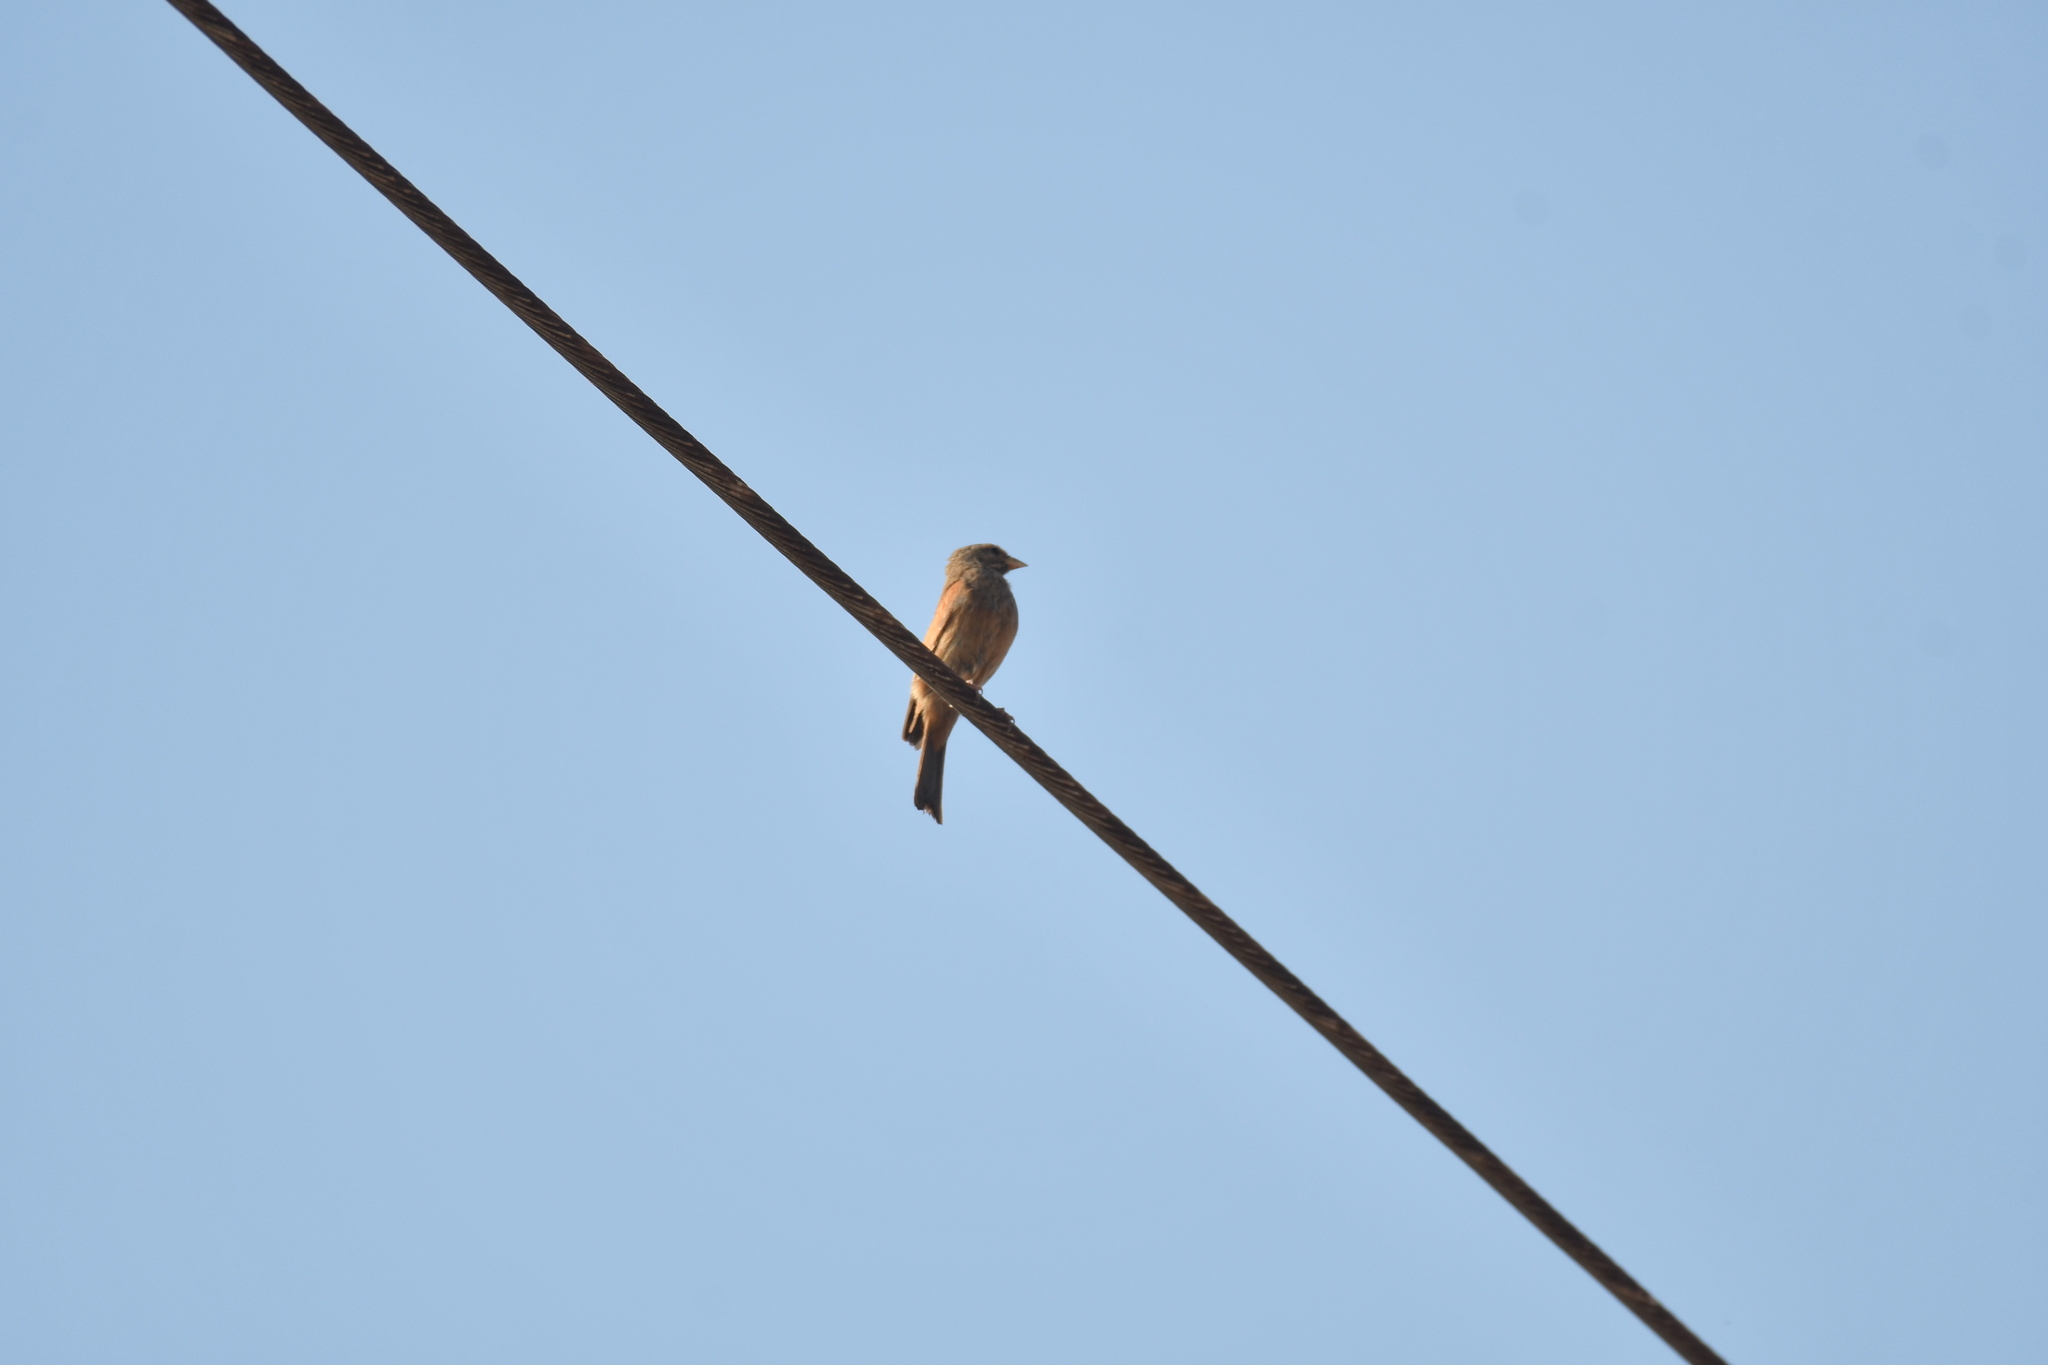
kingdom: Animalia
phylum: Chordata
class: Aves
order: Passeriformes
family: Emberizidae
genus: Emberiza
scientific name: Emberiza sahari
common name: House bunting
